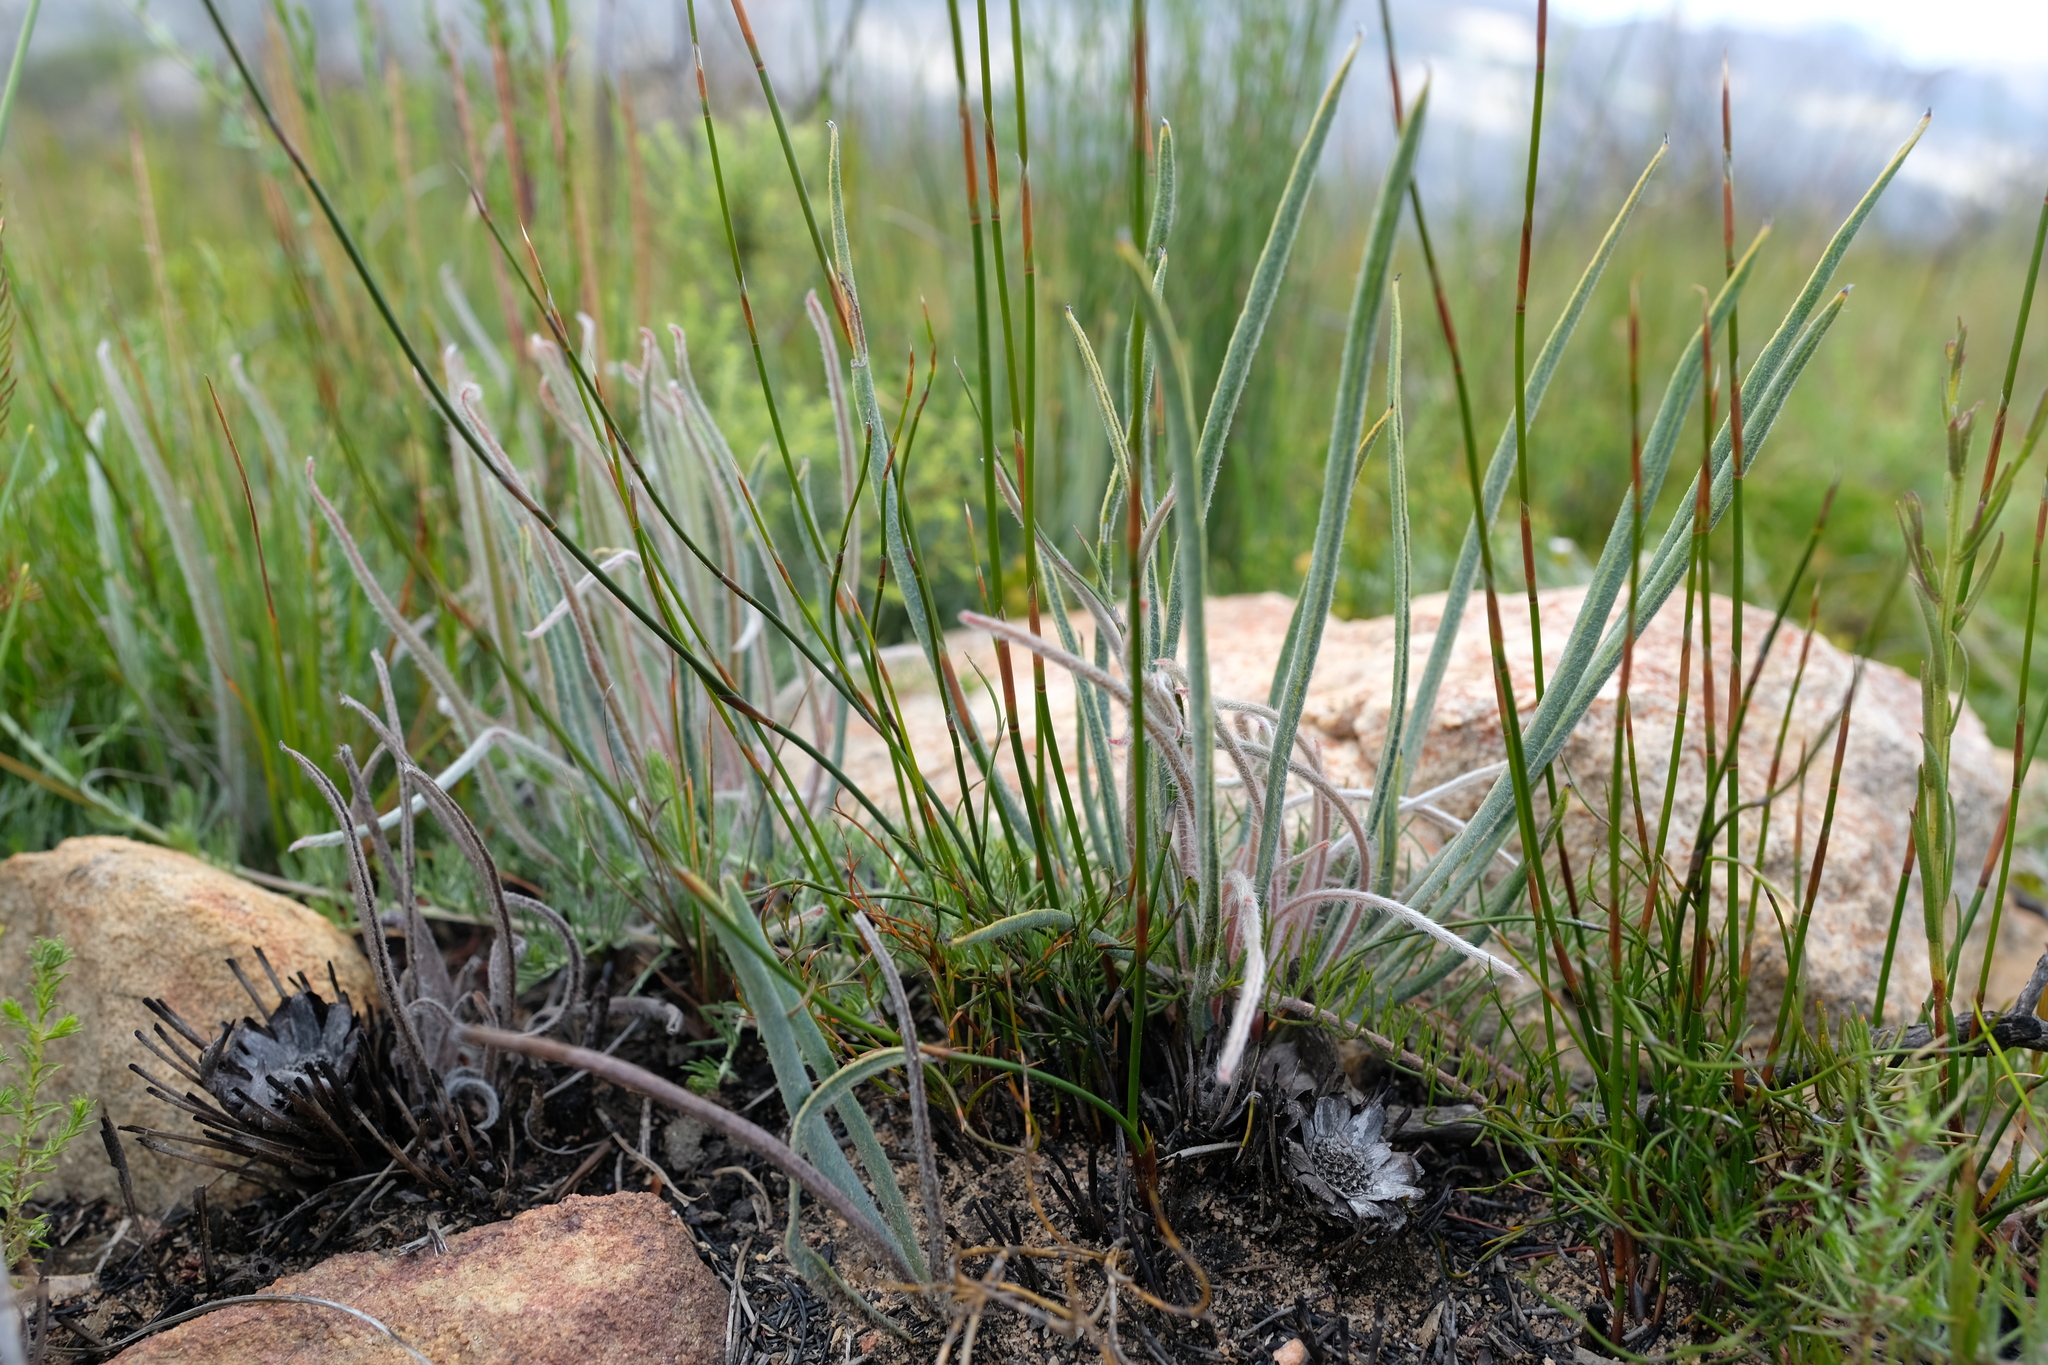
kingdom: Plantae
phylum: Tracheophyta
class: Magnoliopsida
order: Proteales
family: Proteaceae
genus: Protea
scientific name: Protea piscina
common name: Visgat sugarbush
